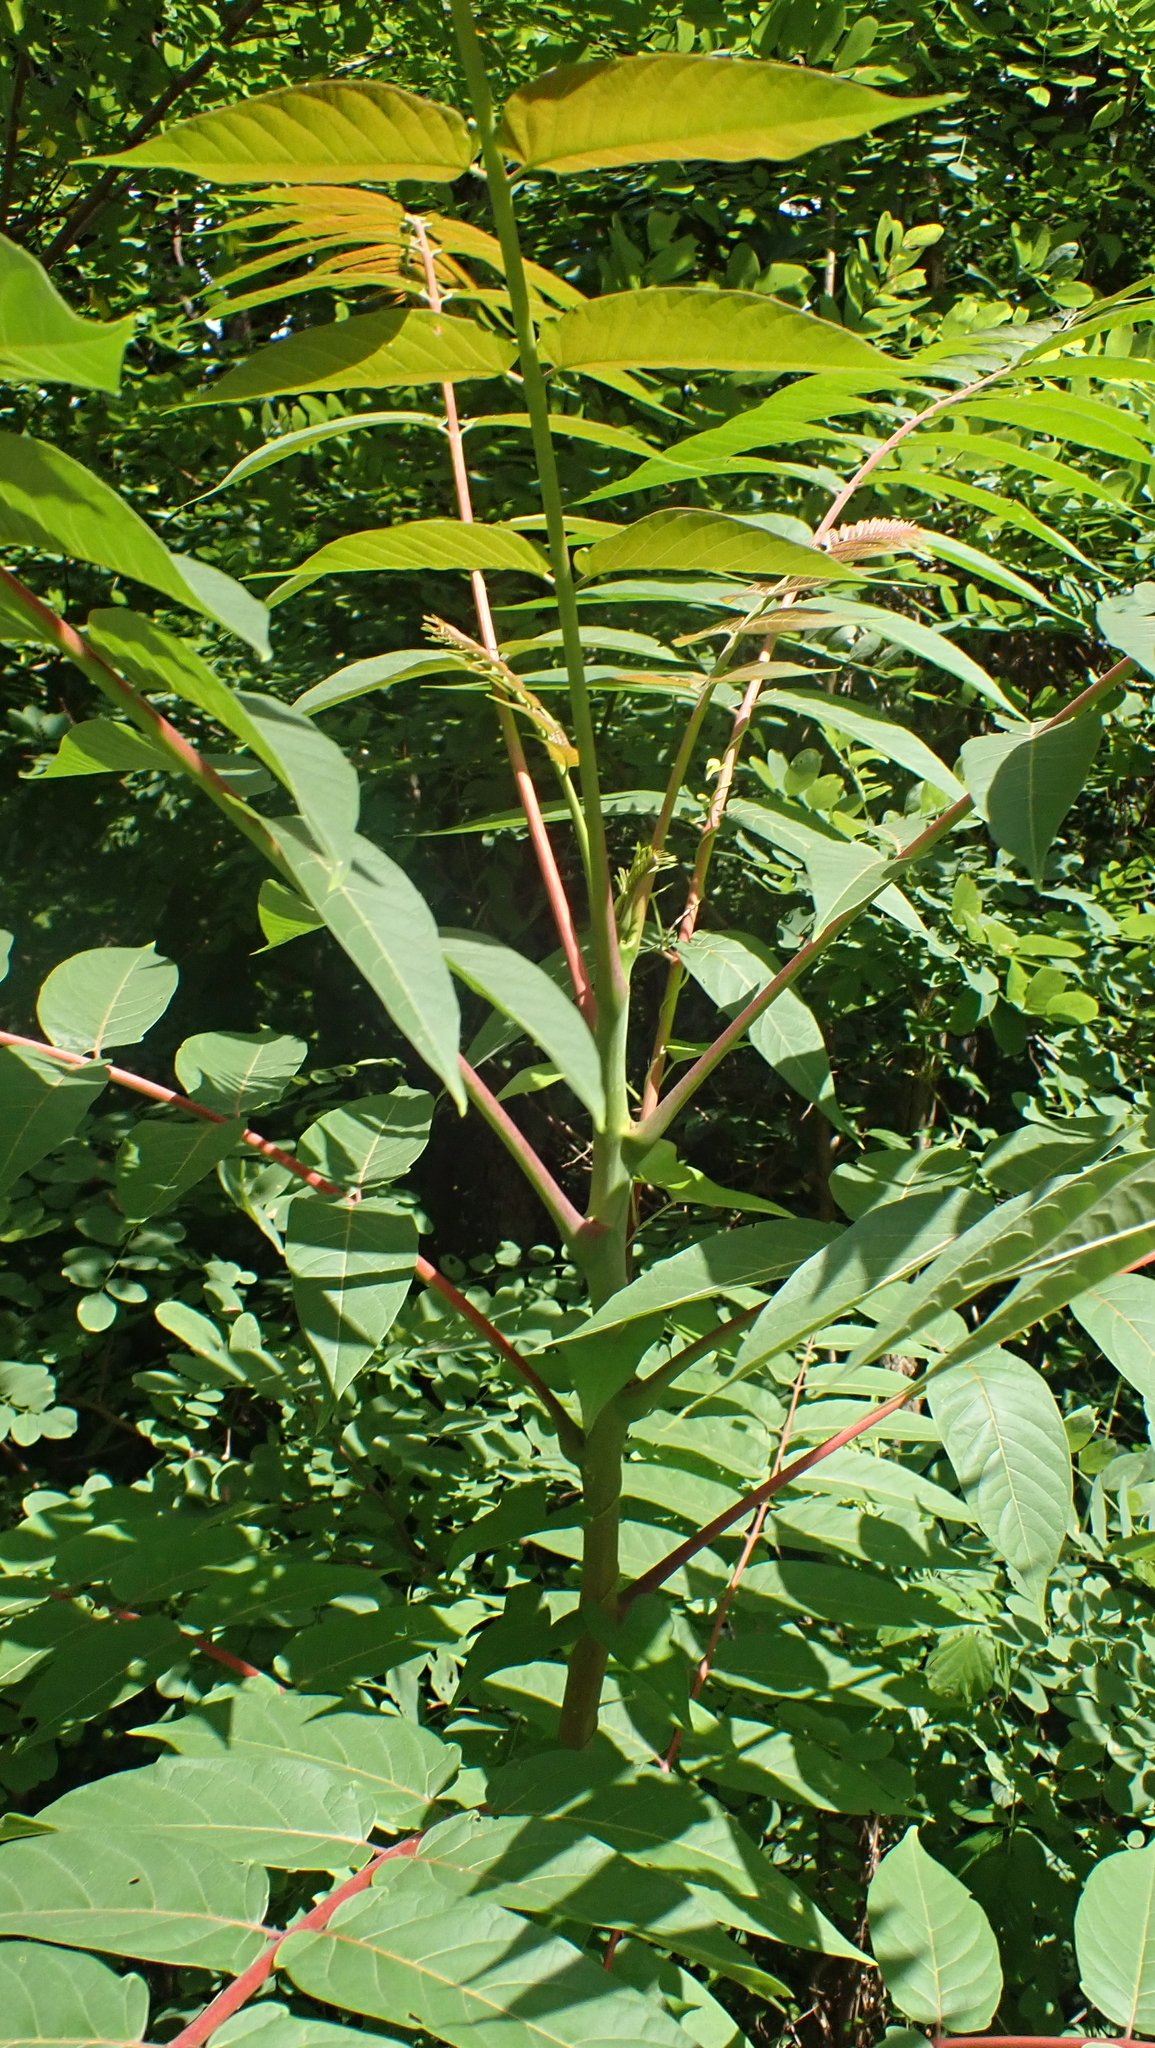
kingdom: Plantae
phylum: Tracheophyta
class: Magnoliopsida
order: Sapindales
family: Simaroubaceae
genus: Ailanthus
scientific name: Ailanthus altissima
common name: Tree-of-heaven
